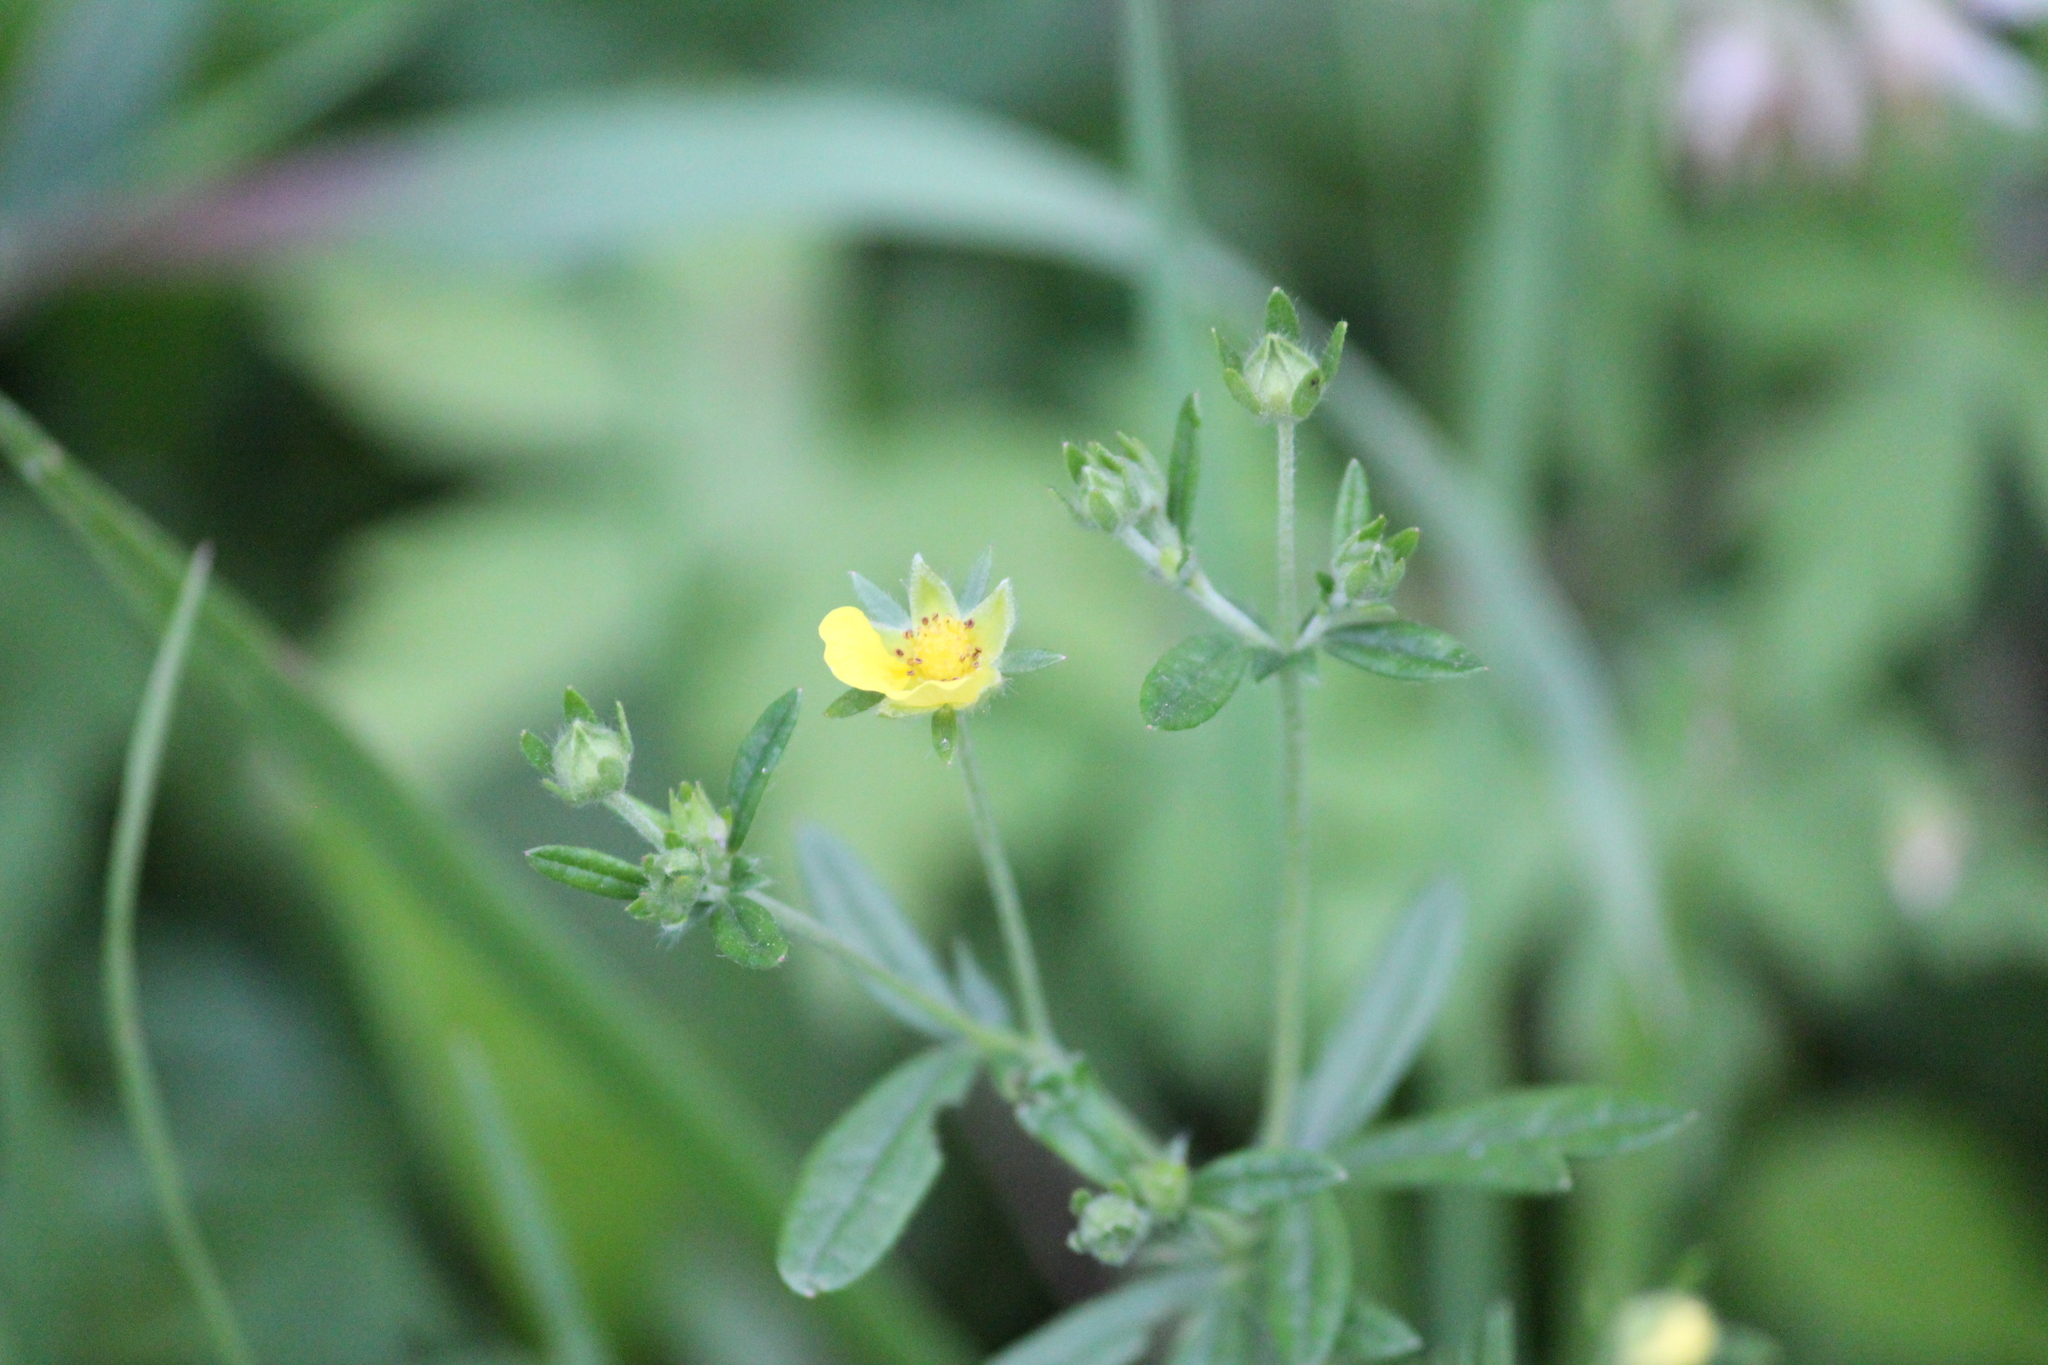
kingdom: Plantae
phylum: Tracheophyta
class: Magnoliopsida
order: Rosales
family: Rosaceae
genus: Potentilla
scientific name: Potentilla argentea
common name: Hoary cinquefoil
